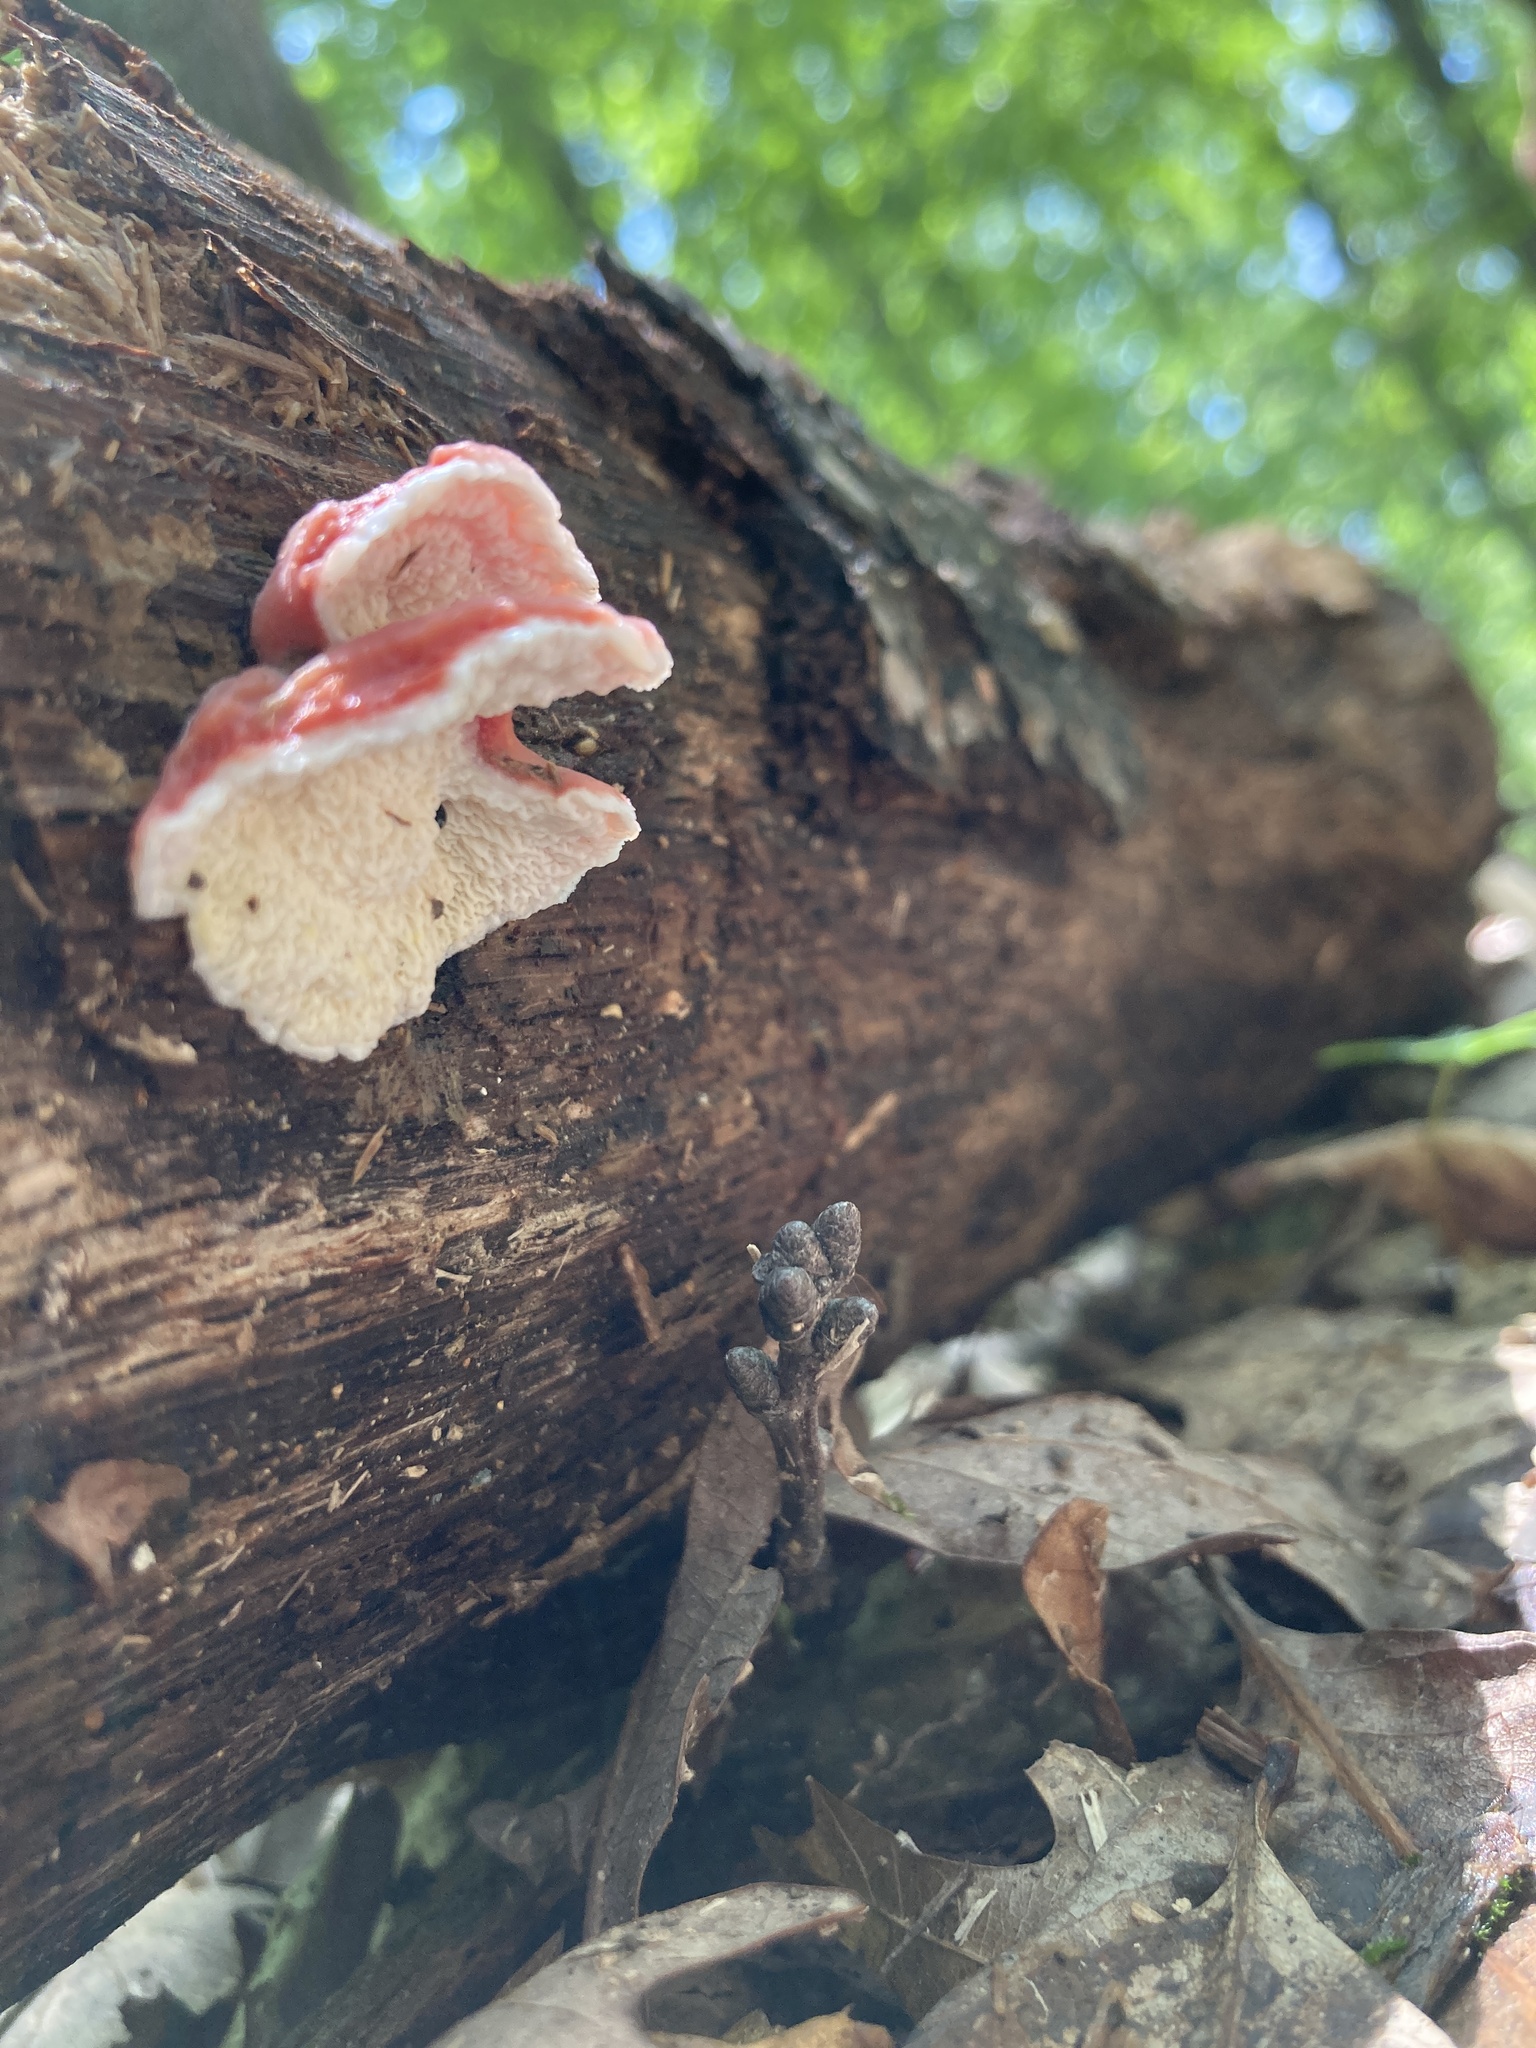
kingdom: Fungi
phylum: Basidiomycota
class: Agaricomycetes
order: Polyporales
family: Irpicaceae
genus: Byssomerulius
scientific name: Byssomerulius incarnatus
